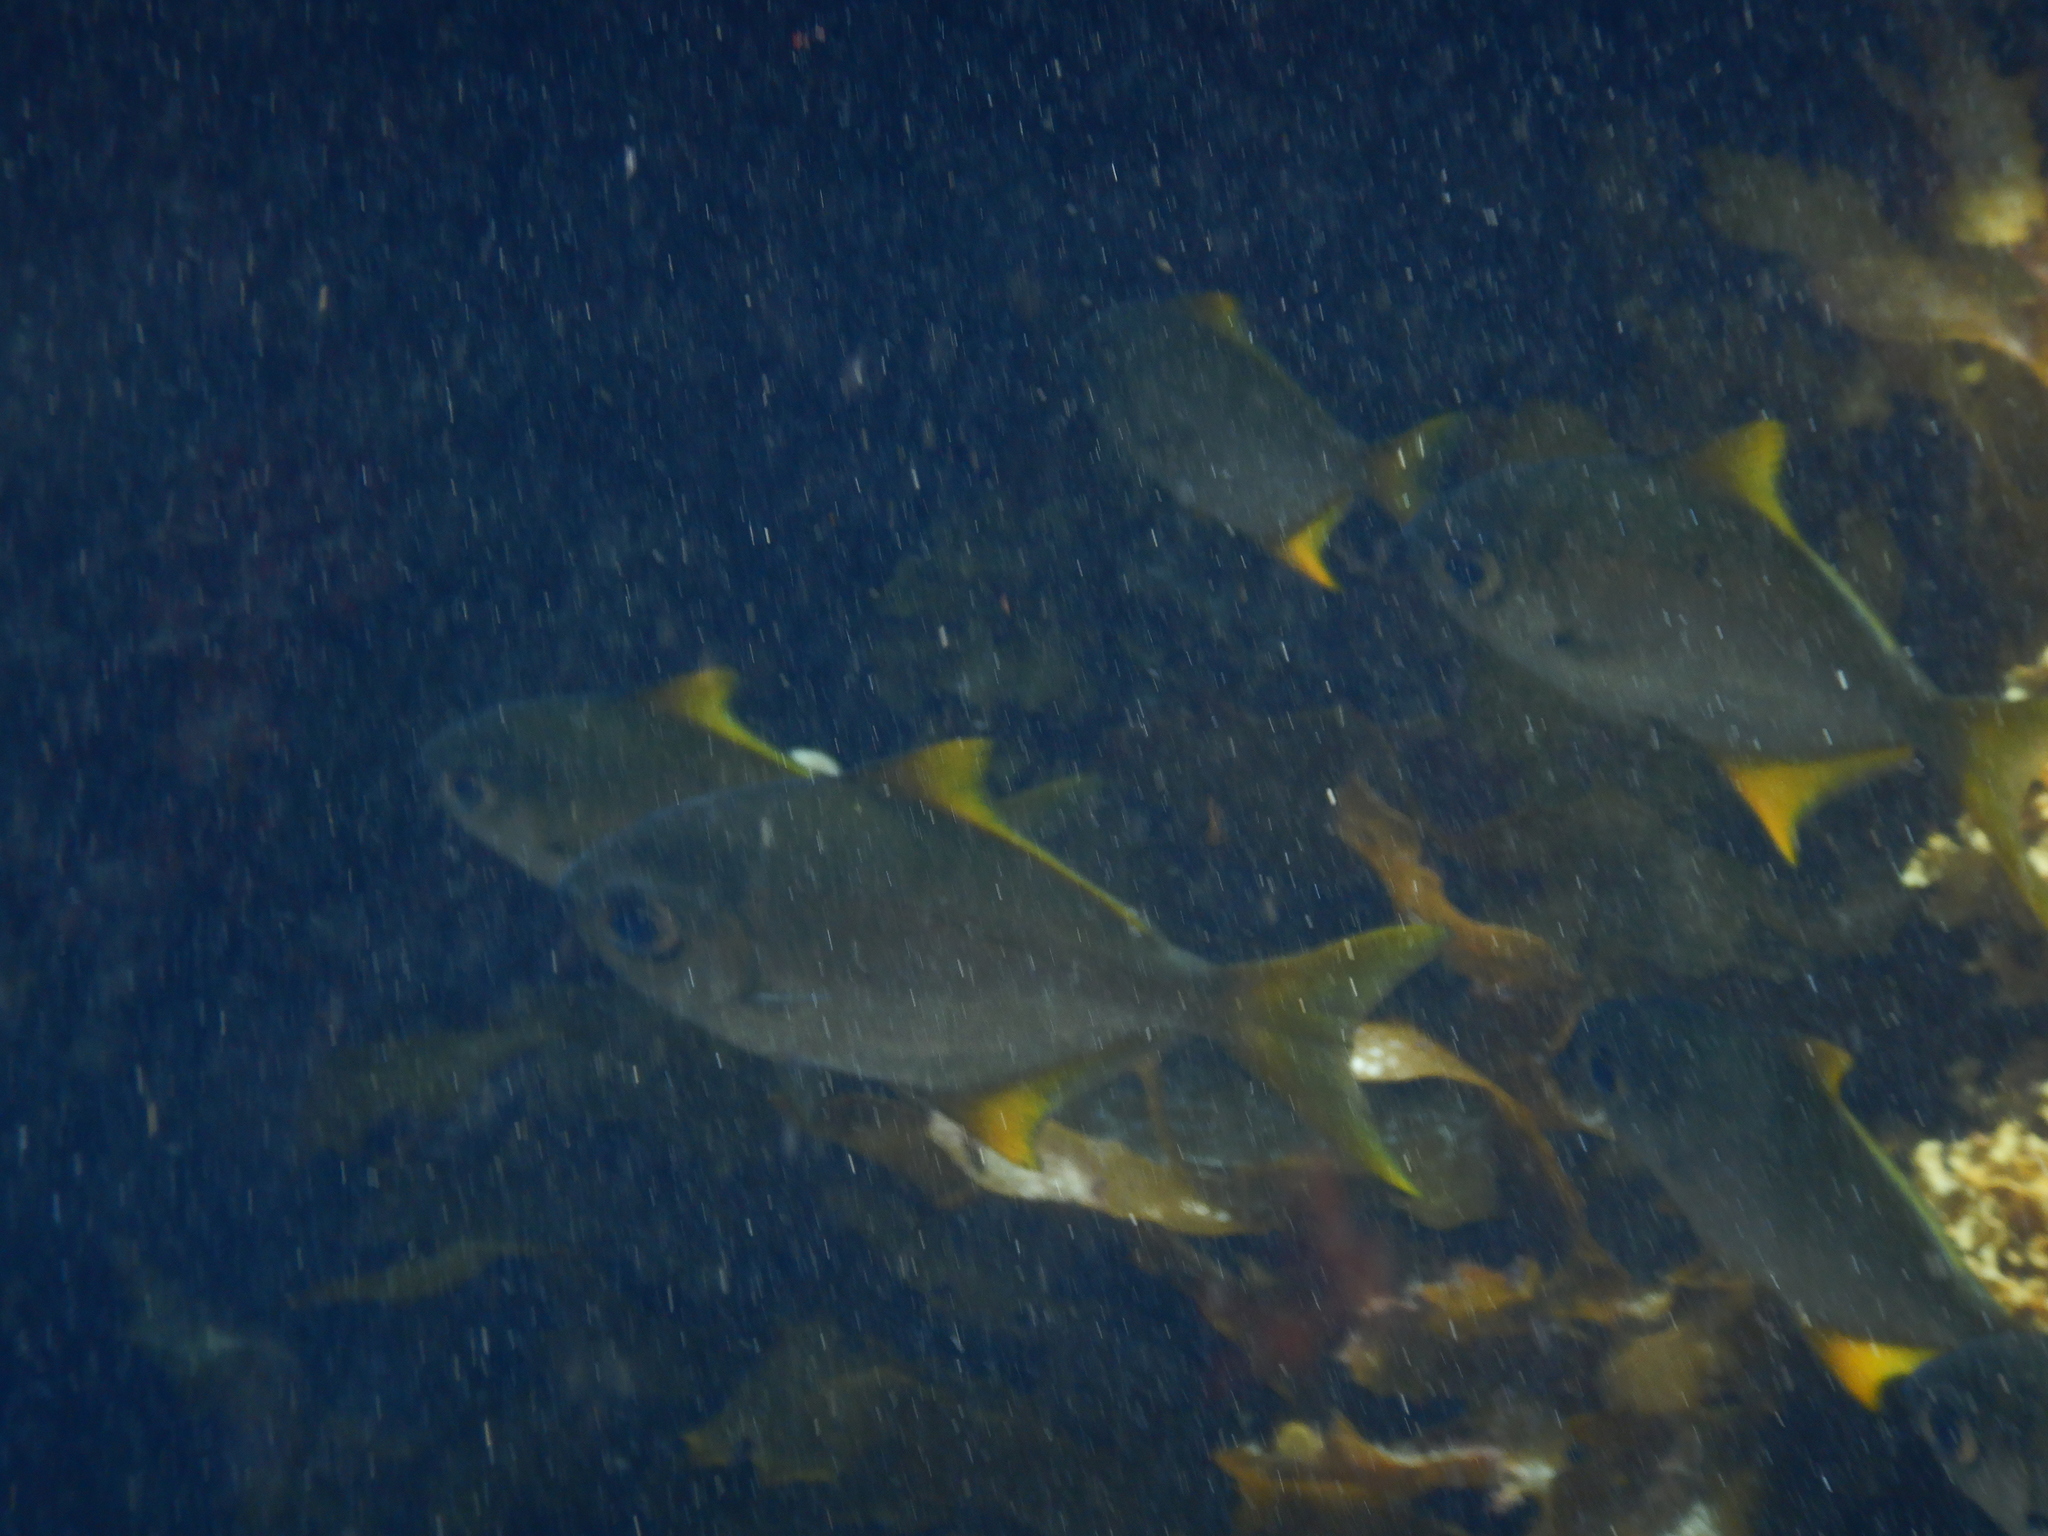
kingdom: Animalia
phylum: Chordata
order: Perciformes
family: Monodactylidae
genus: Schuettea
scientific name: Schuettea woodwardi
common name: Western pomfred
